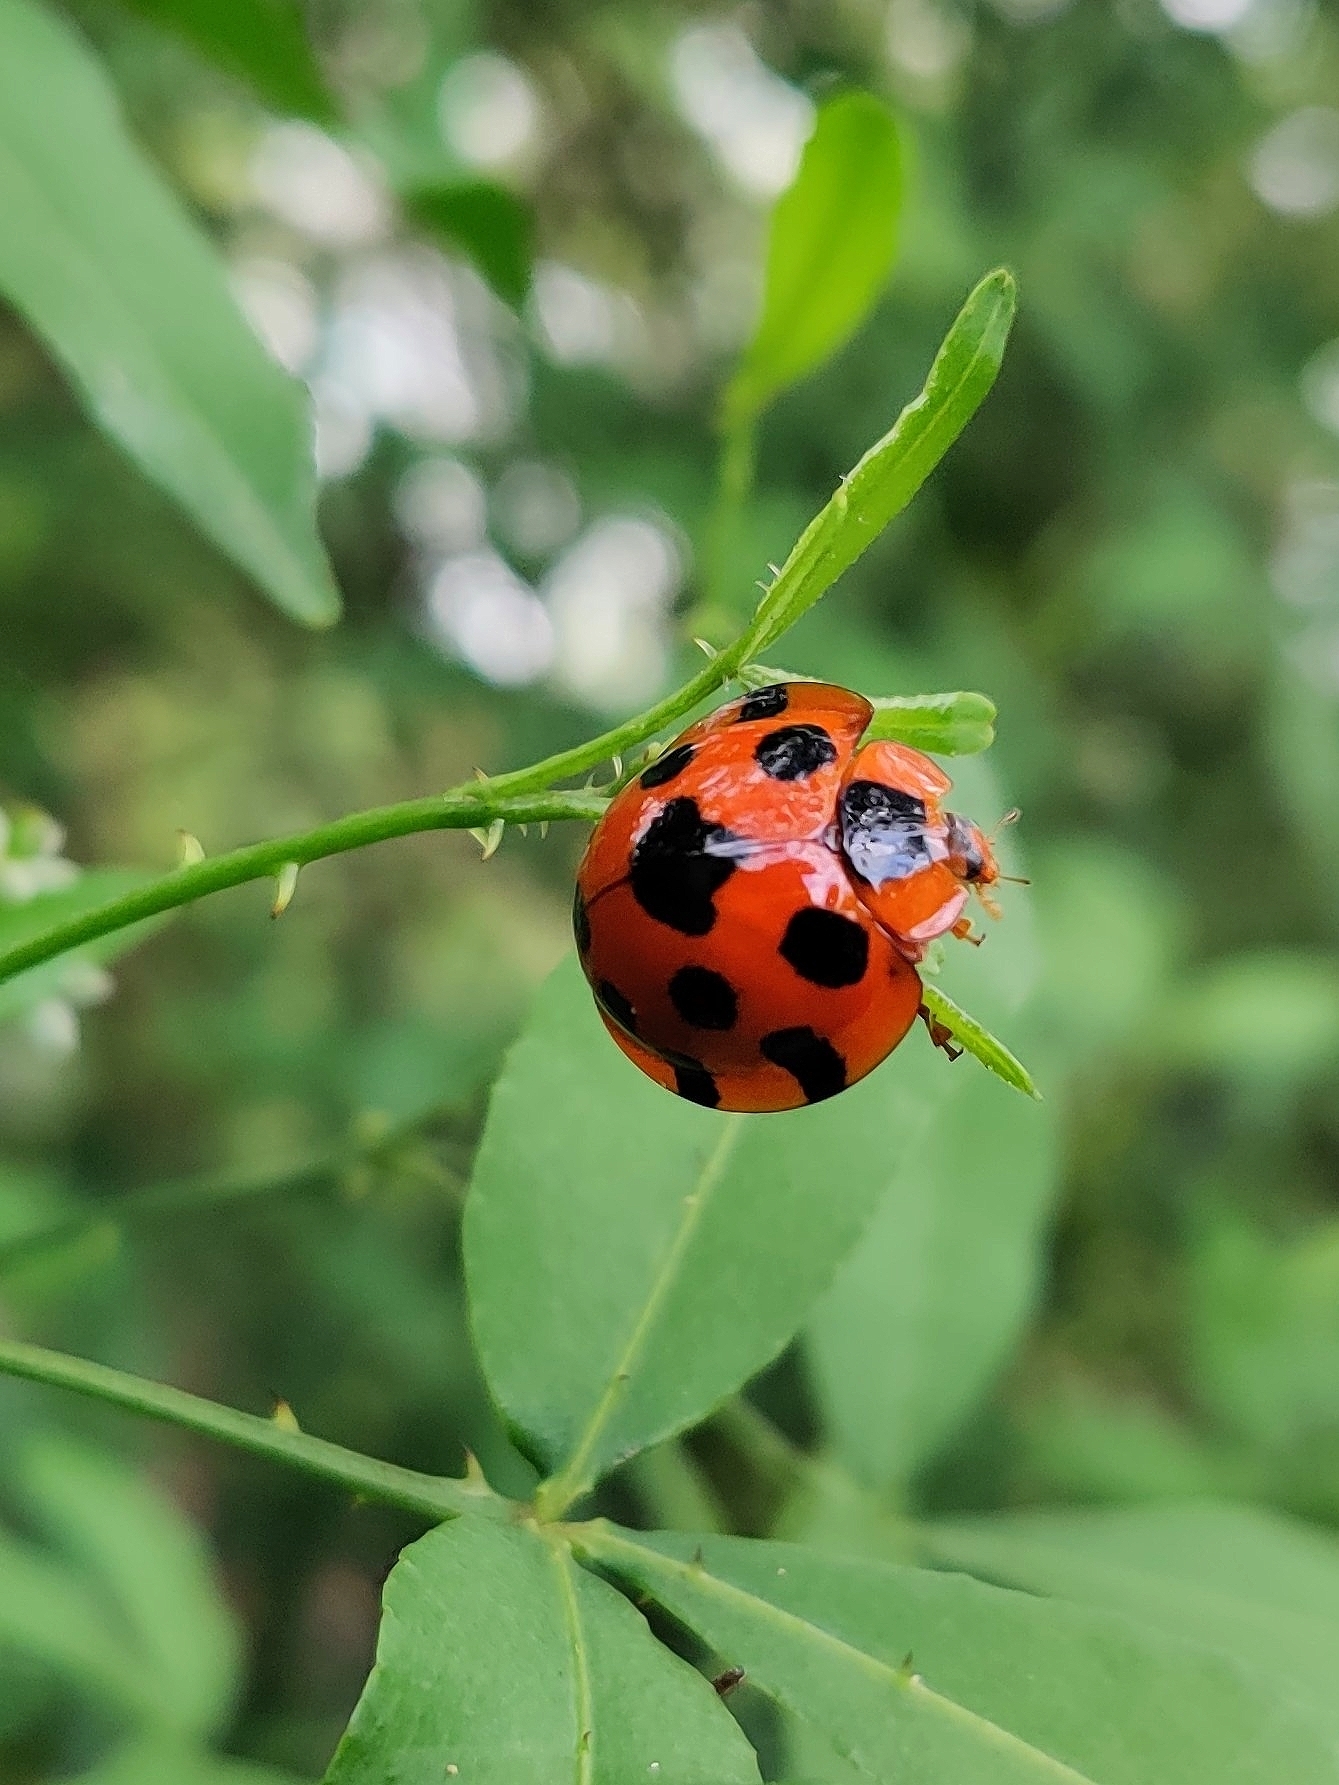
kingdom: Animalia
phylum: Arthropoda
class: Insecta
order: Coleoptera
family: Coccinellidae
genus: Synonycha
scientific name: Synonycha grandis
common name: Lady beetle
